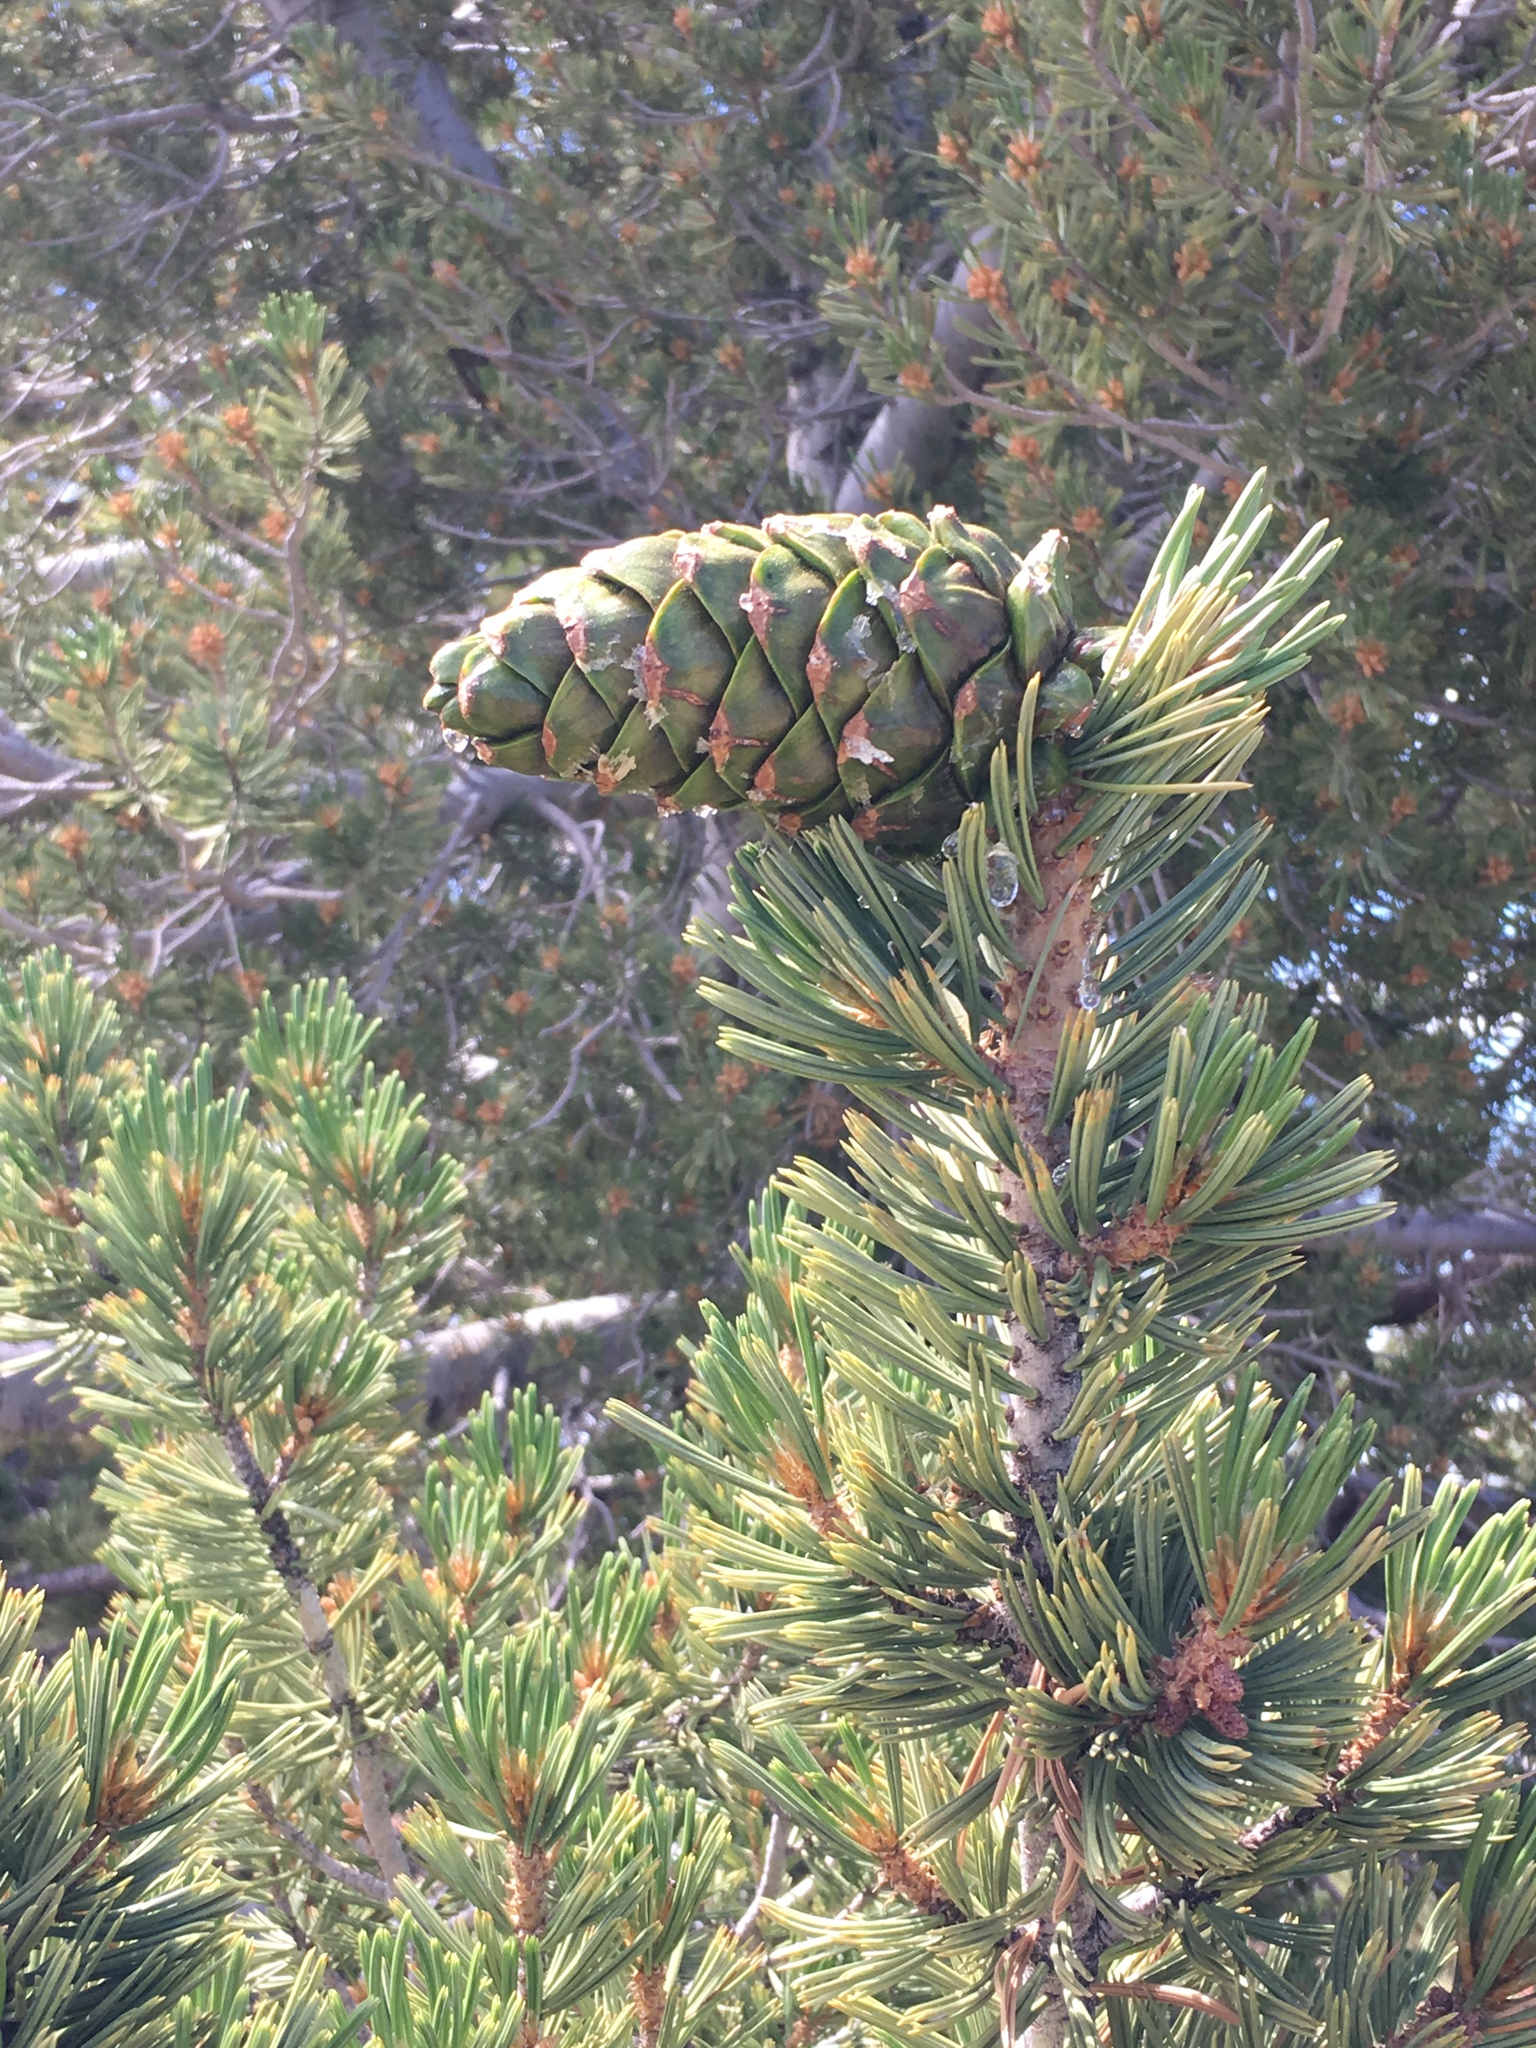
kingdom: Plantae
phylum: Tracheophyta
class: Pinopsida
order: Pinales
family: Pinaceae
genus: Pinus
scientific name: Pinus flexilis
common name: Limber pine
